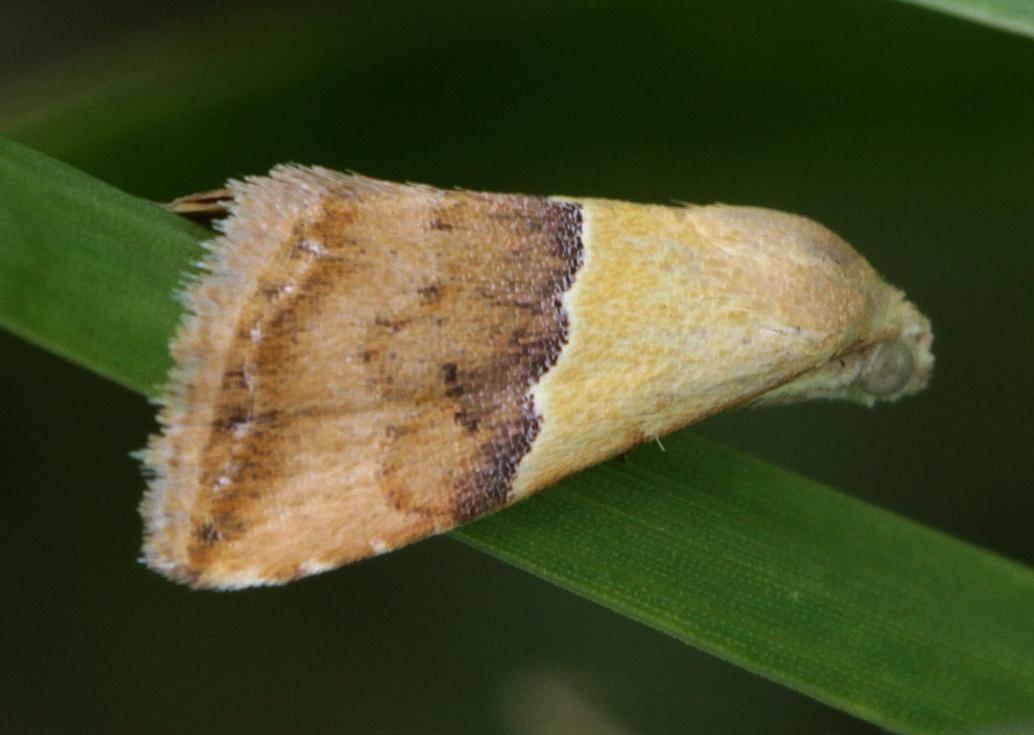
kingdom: Animalia
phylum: Arthropoda
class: Insecta
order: Lepidoptera
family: Noctuidae
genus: Eublemma
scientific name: Eublemma caffrorum
